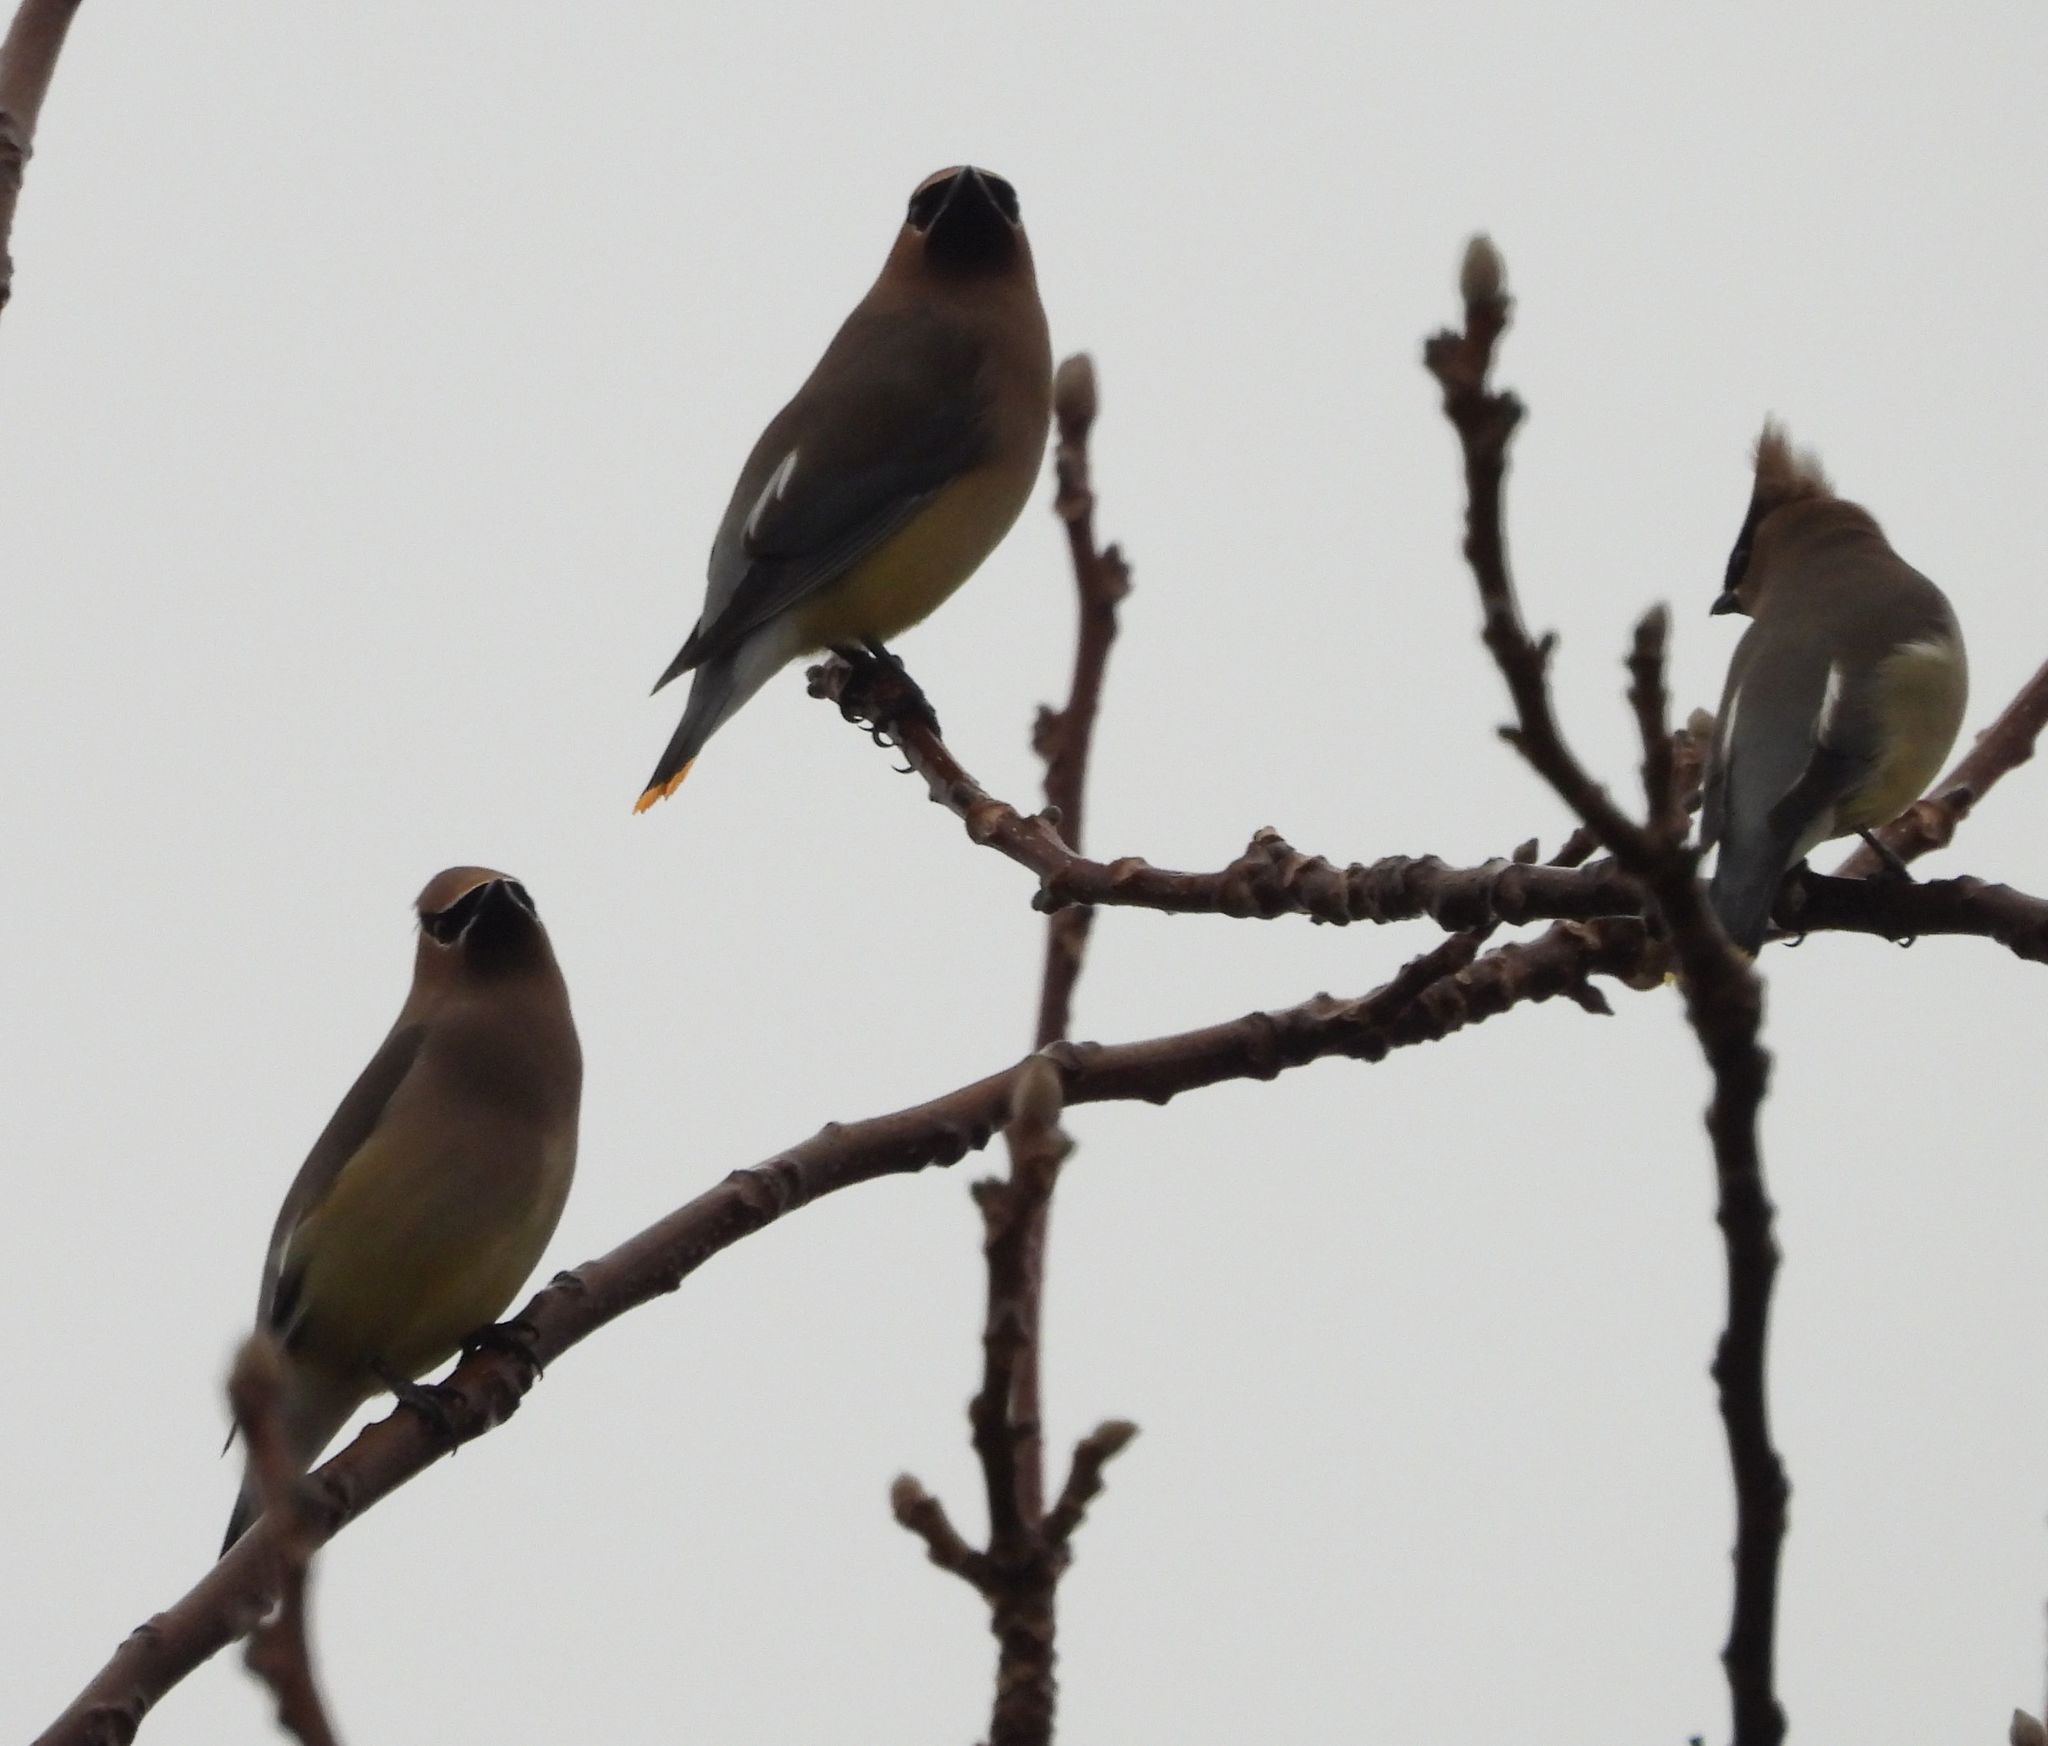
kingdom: Animalia
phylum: Chordata
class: Aves
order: Passeriformes
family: Bombycillidae
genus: Bombycilla
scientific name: Bombycilla cedrorum
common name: Cedar waxwing
